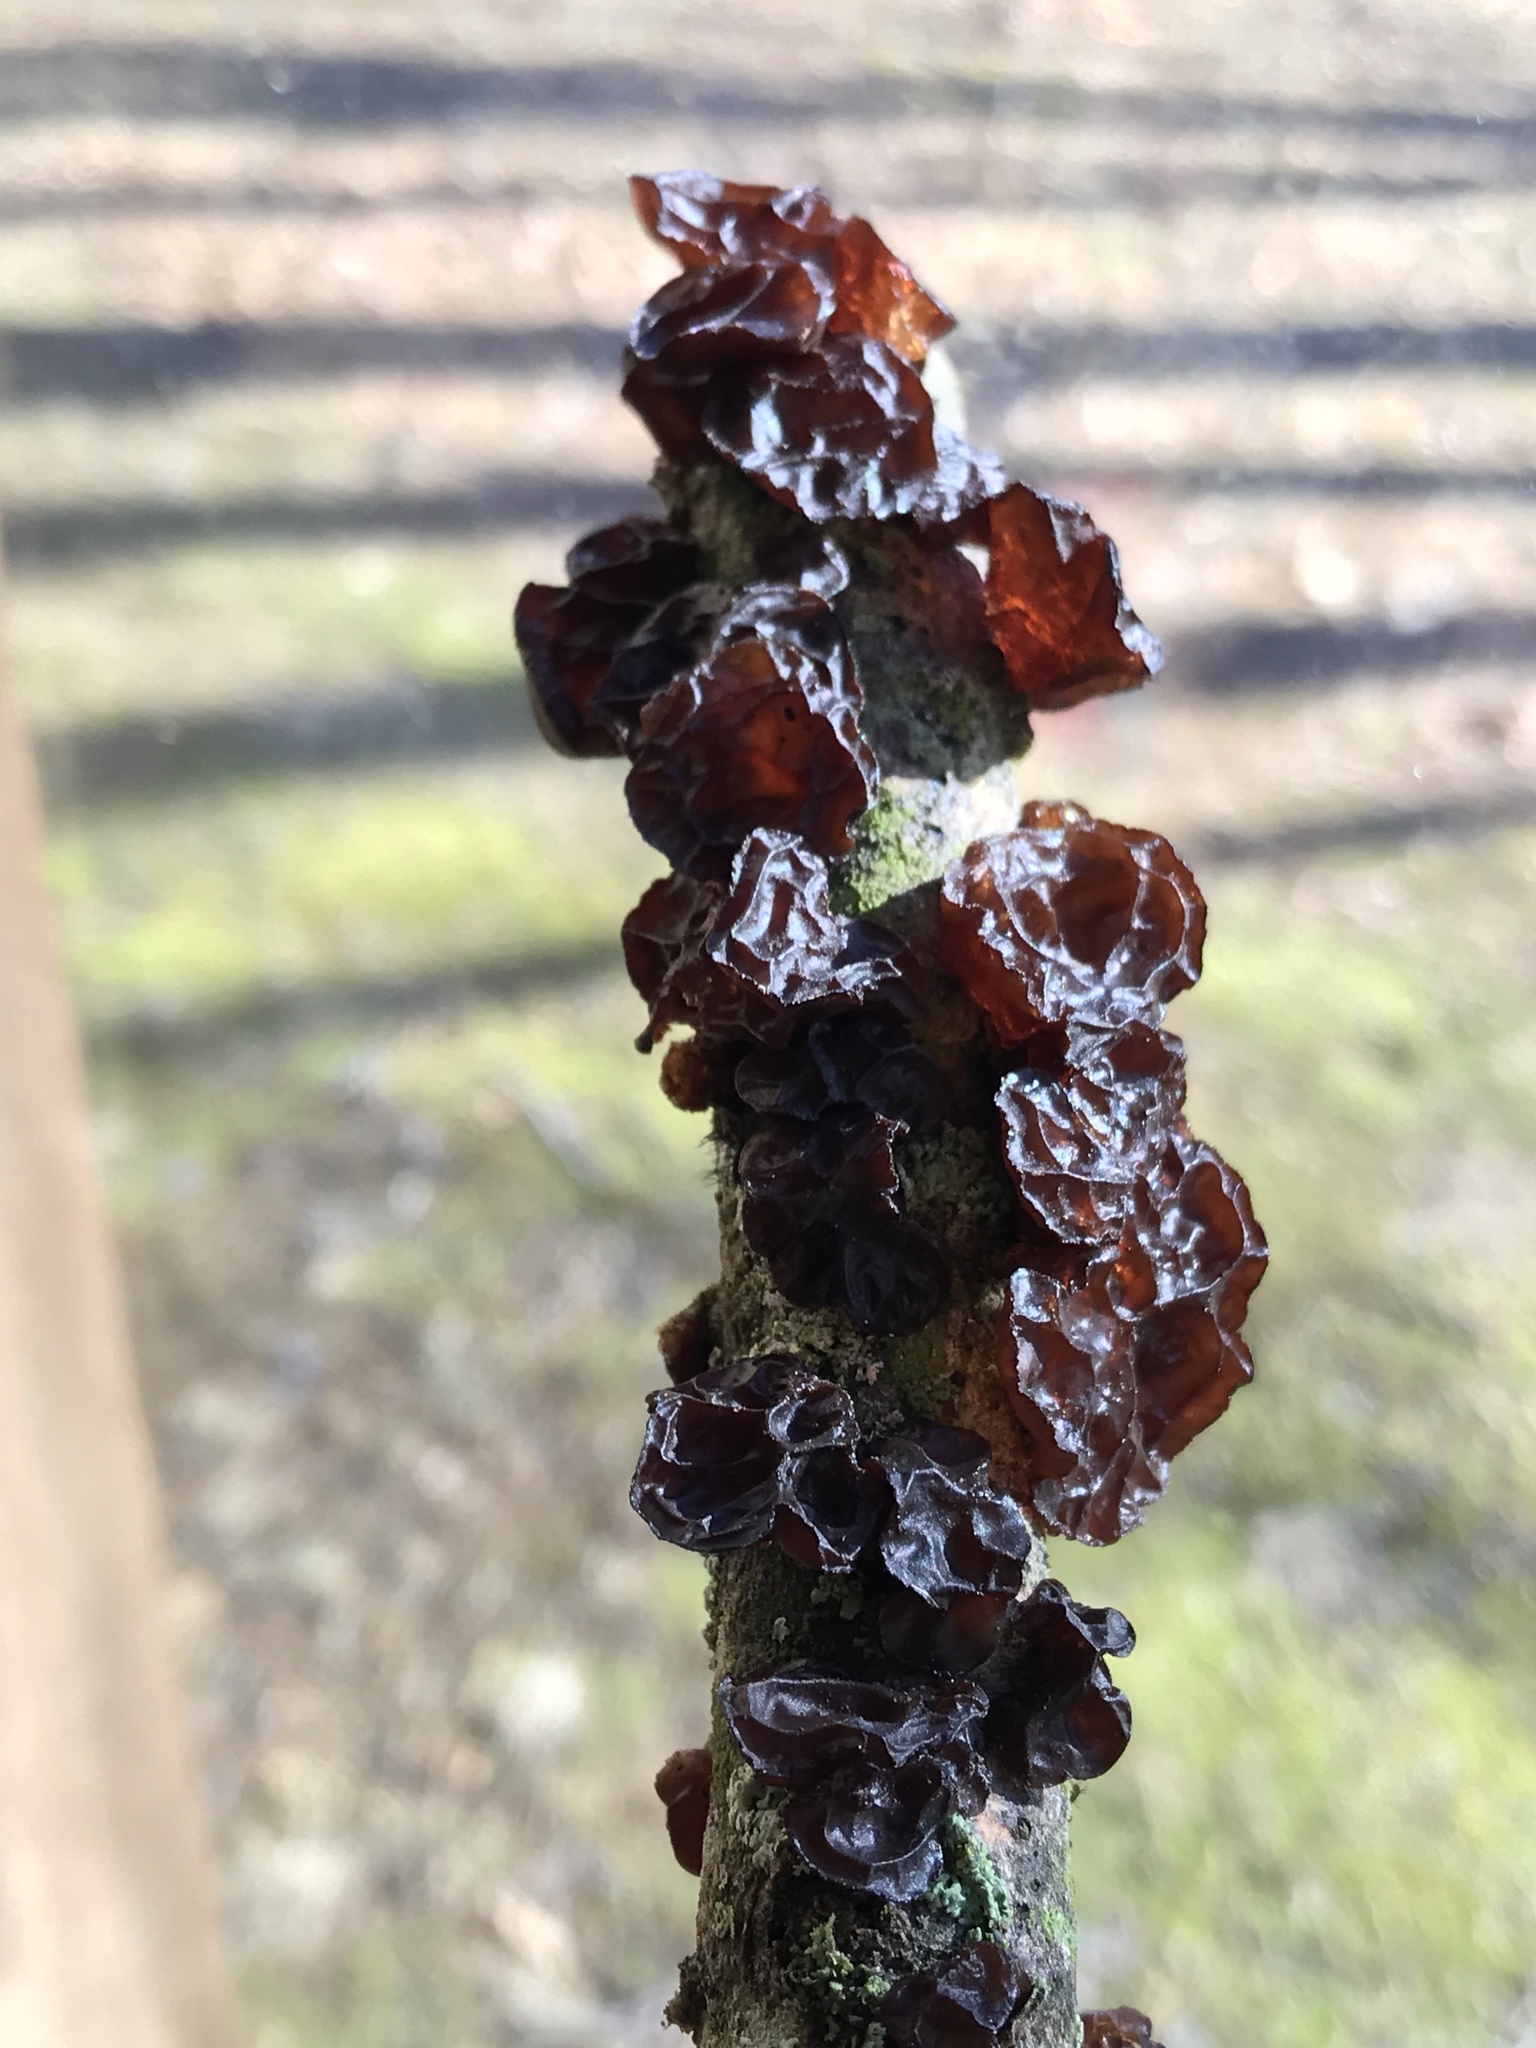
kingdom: Fungi
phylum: Basidiomycota
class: Agaricomycetes
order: Auriculariales
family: Auriculariaceae
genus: Exidia
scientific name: Exidia
